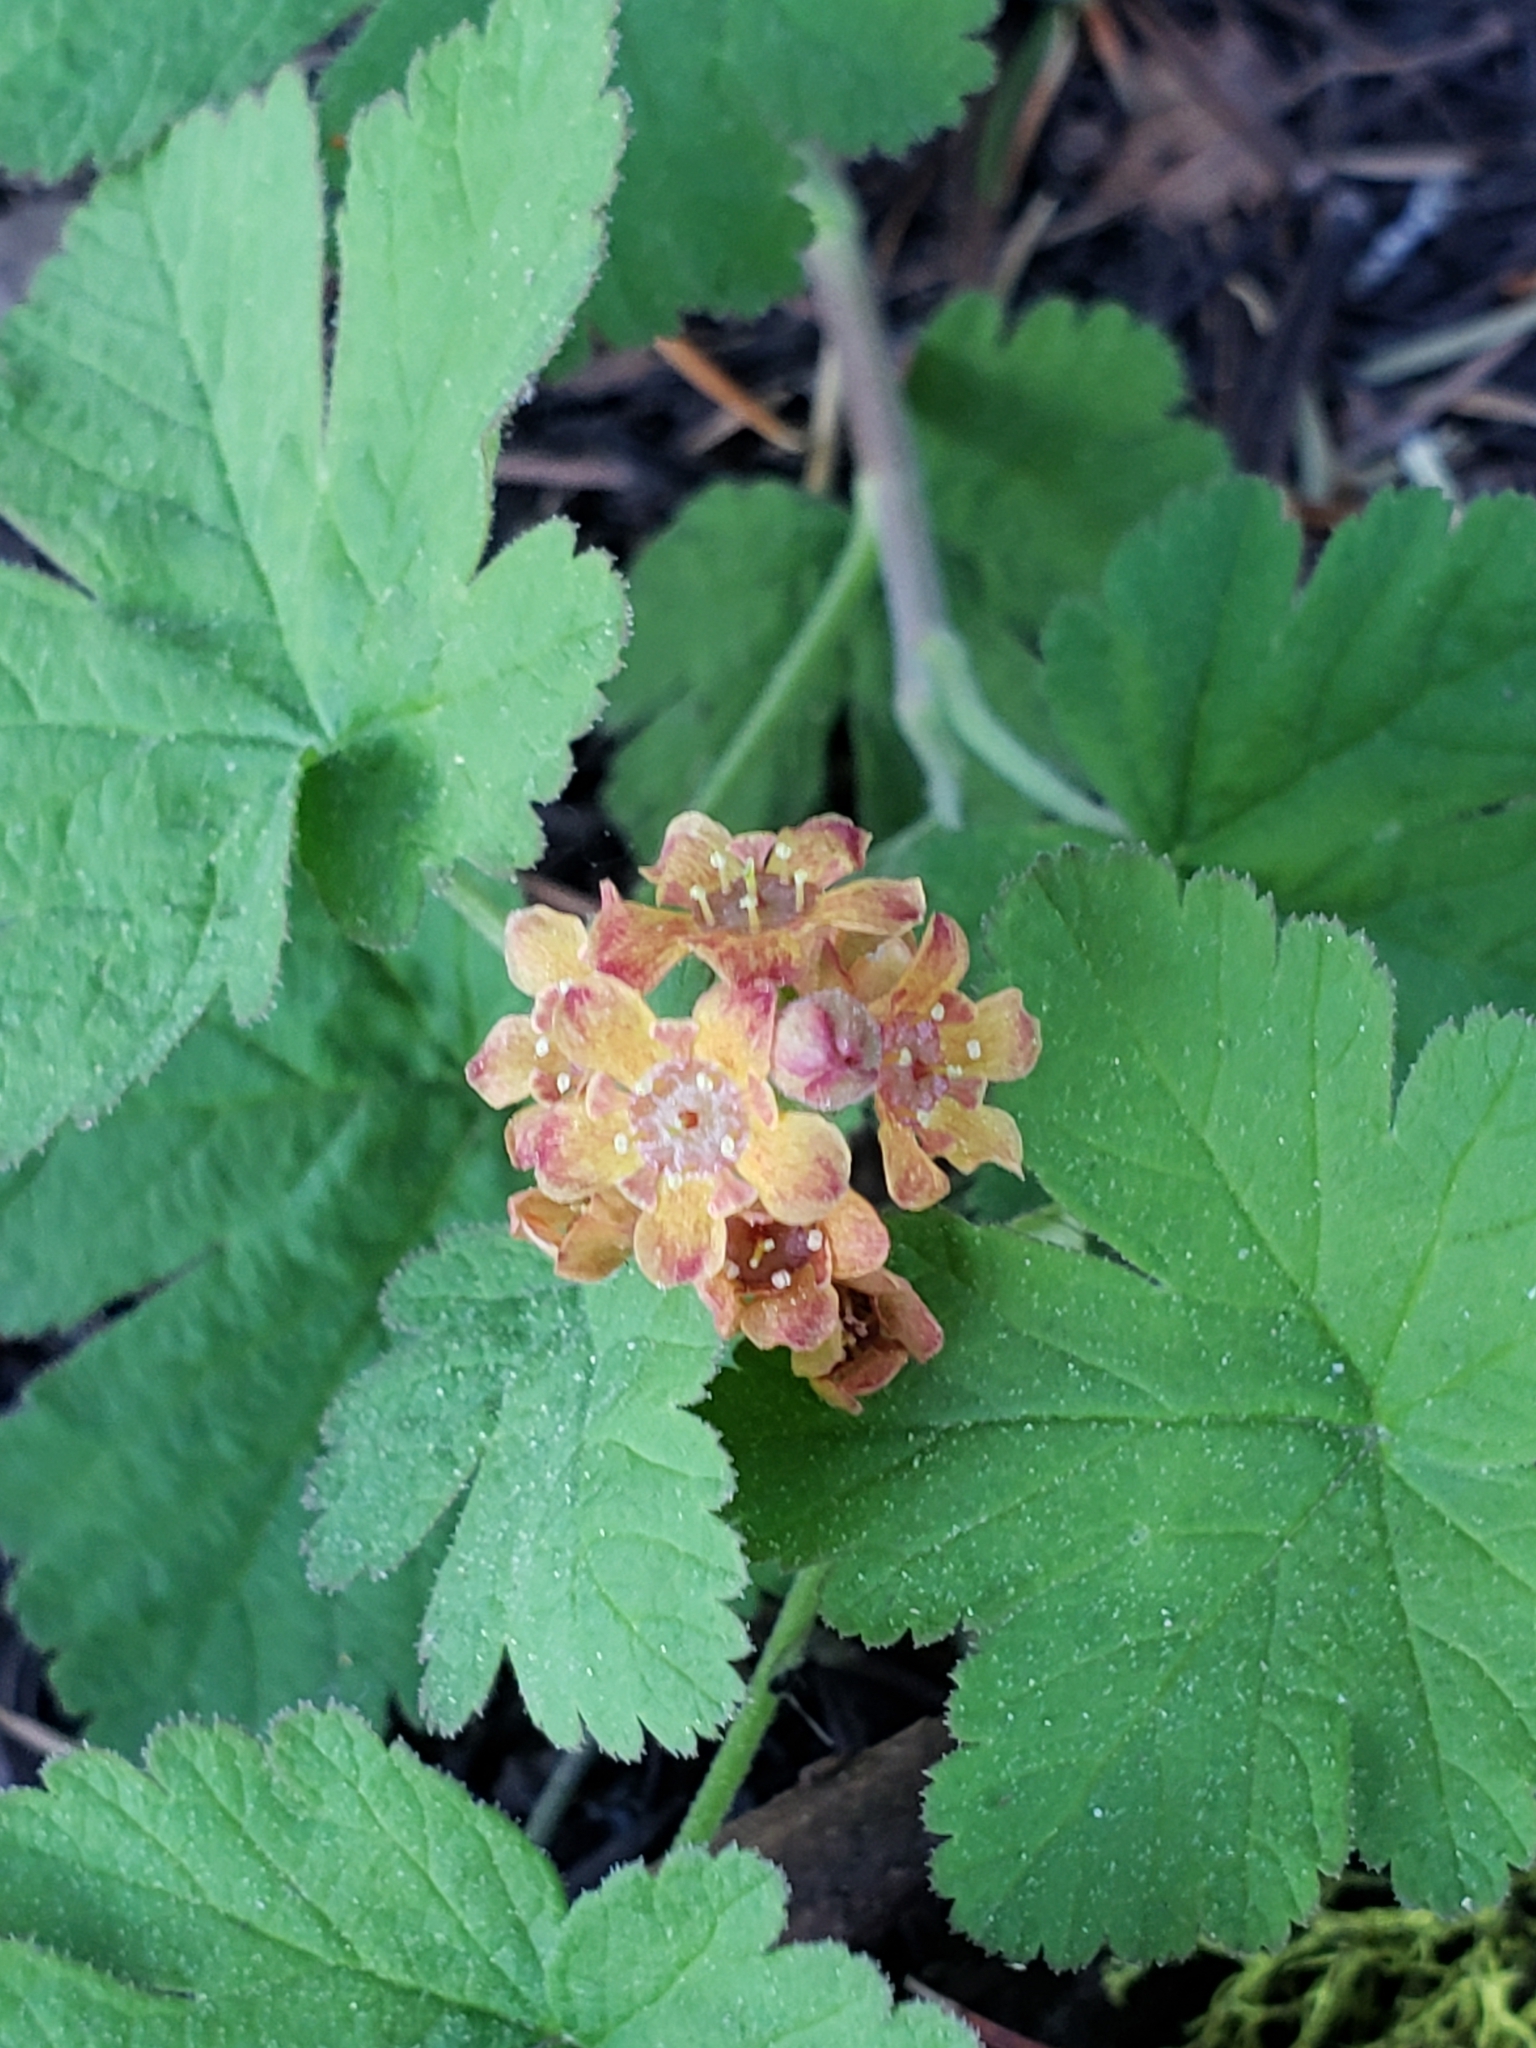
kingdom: Plantae
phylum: Tracheophyta
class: Magnoliopsida
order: Saxifragales
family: Grossulariaceae
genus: Ribes
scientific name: Ribes erythrocarpum
